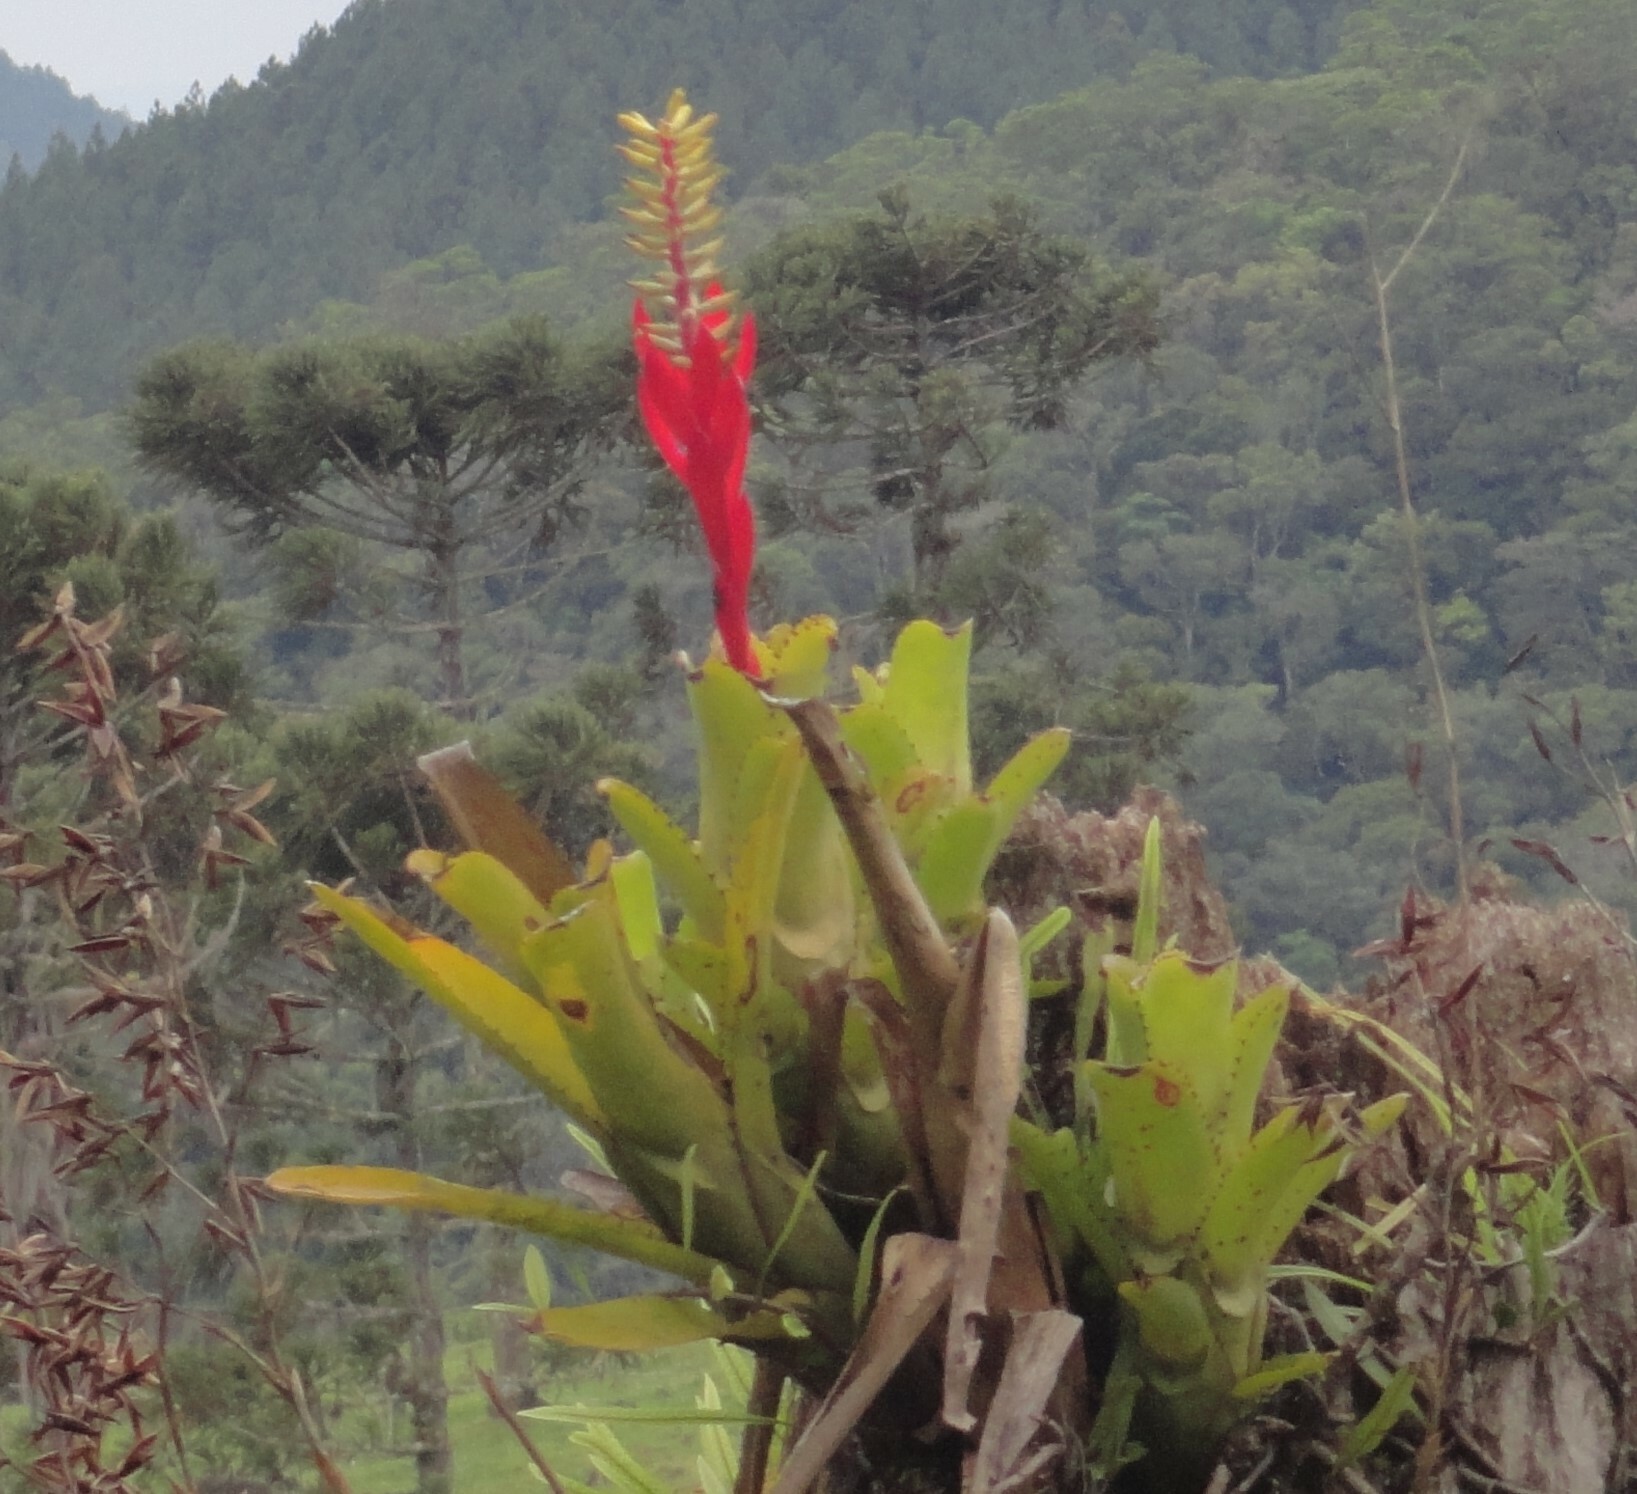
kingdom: Plantae
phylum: Tracheophyta
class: Liliopsida
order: Poales
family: Bromeliaceae
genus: Aechmea
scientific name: Aechmea nudicaulis
